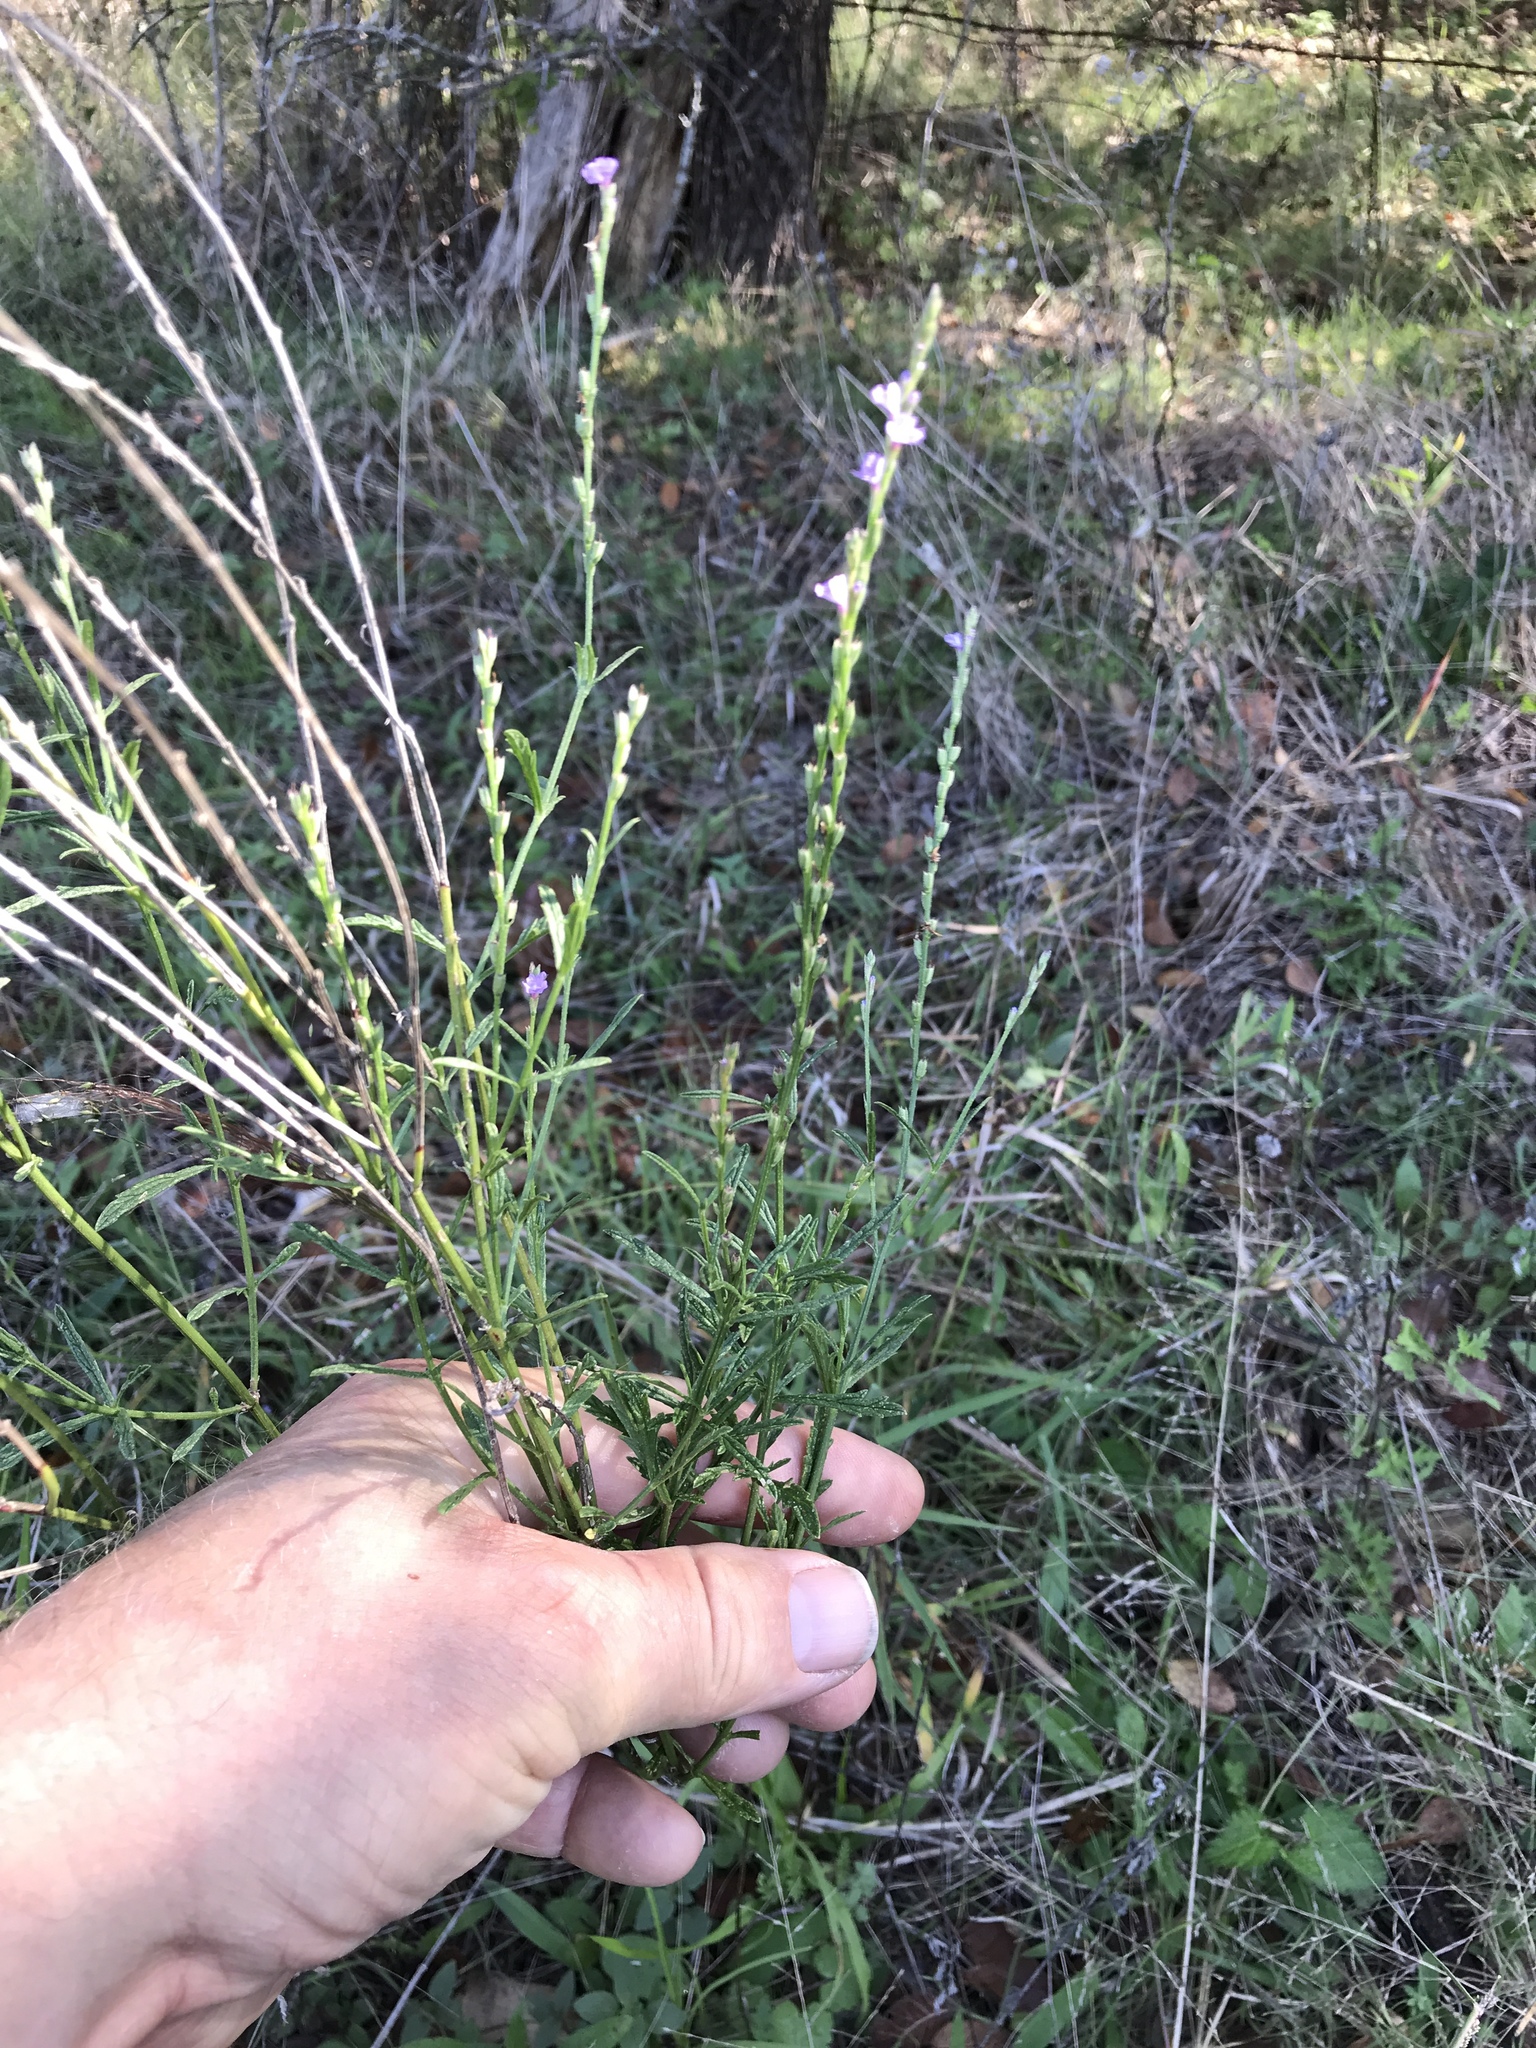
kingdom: Plantae
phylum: Tracheophyta
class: Magnoliopsida
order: Lamiales
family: Verbenaceae
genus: Verbena
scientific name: Verbena halei
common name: Texas vervain
